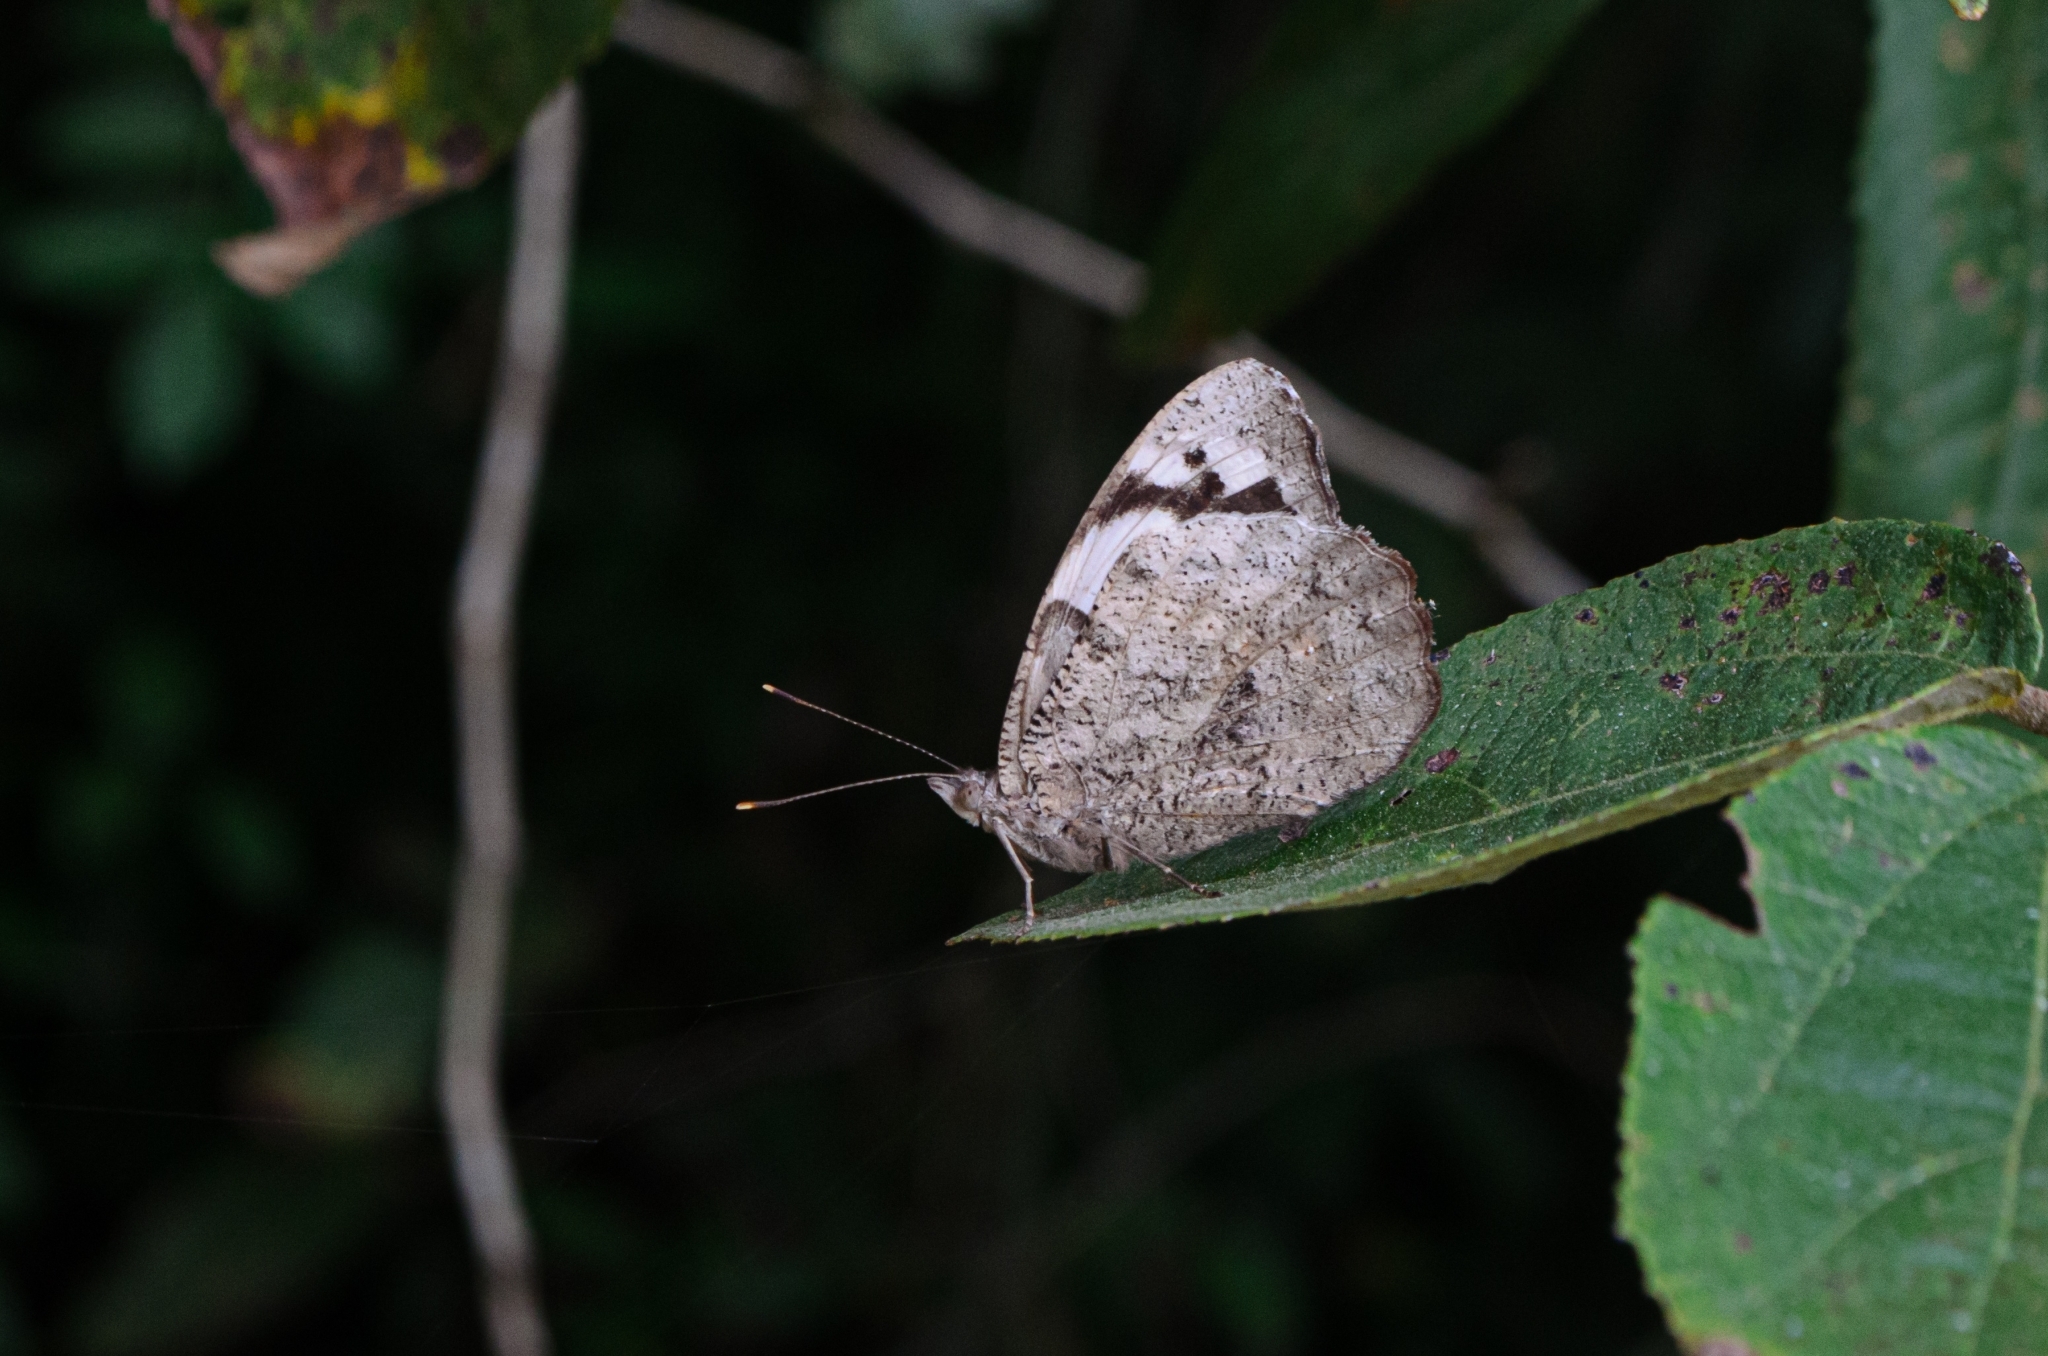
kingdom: Animalia
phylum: Arthropoda
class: Insecta
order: Lepidoptera
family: Nymphalidae
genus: Eunica
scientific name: Eunica eburnea
